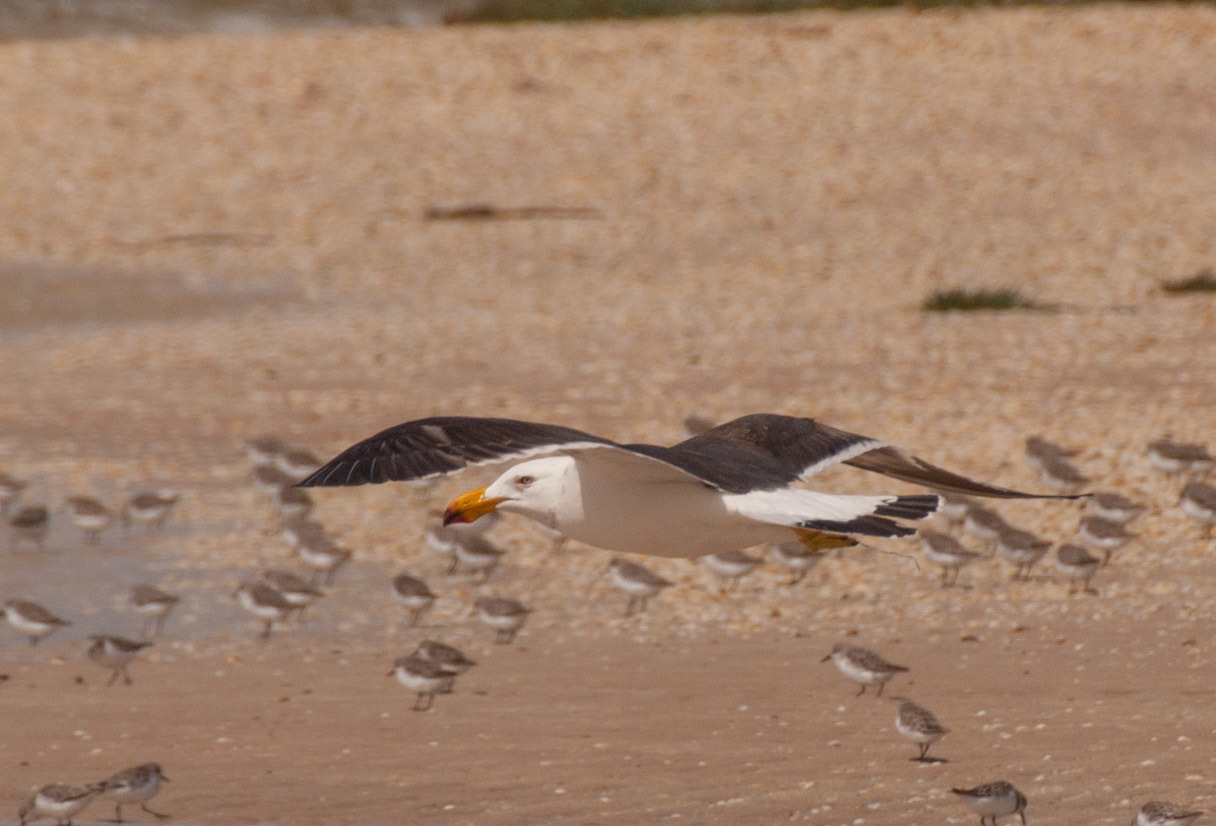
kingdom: Animalia
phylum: Chordata
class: Aves
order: Charadriiformes
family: Laridae
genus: Larus
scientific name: Larus pacificus
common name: Pacific gull
